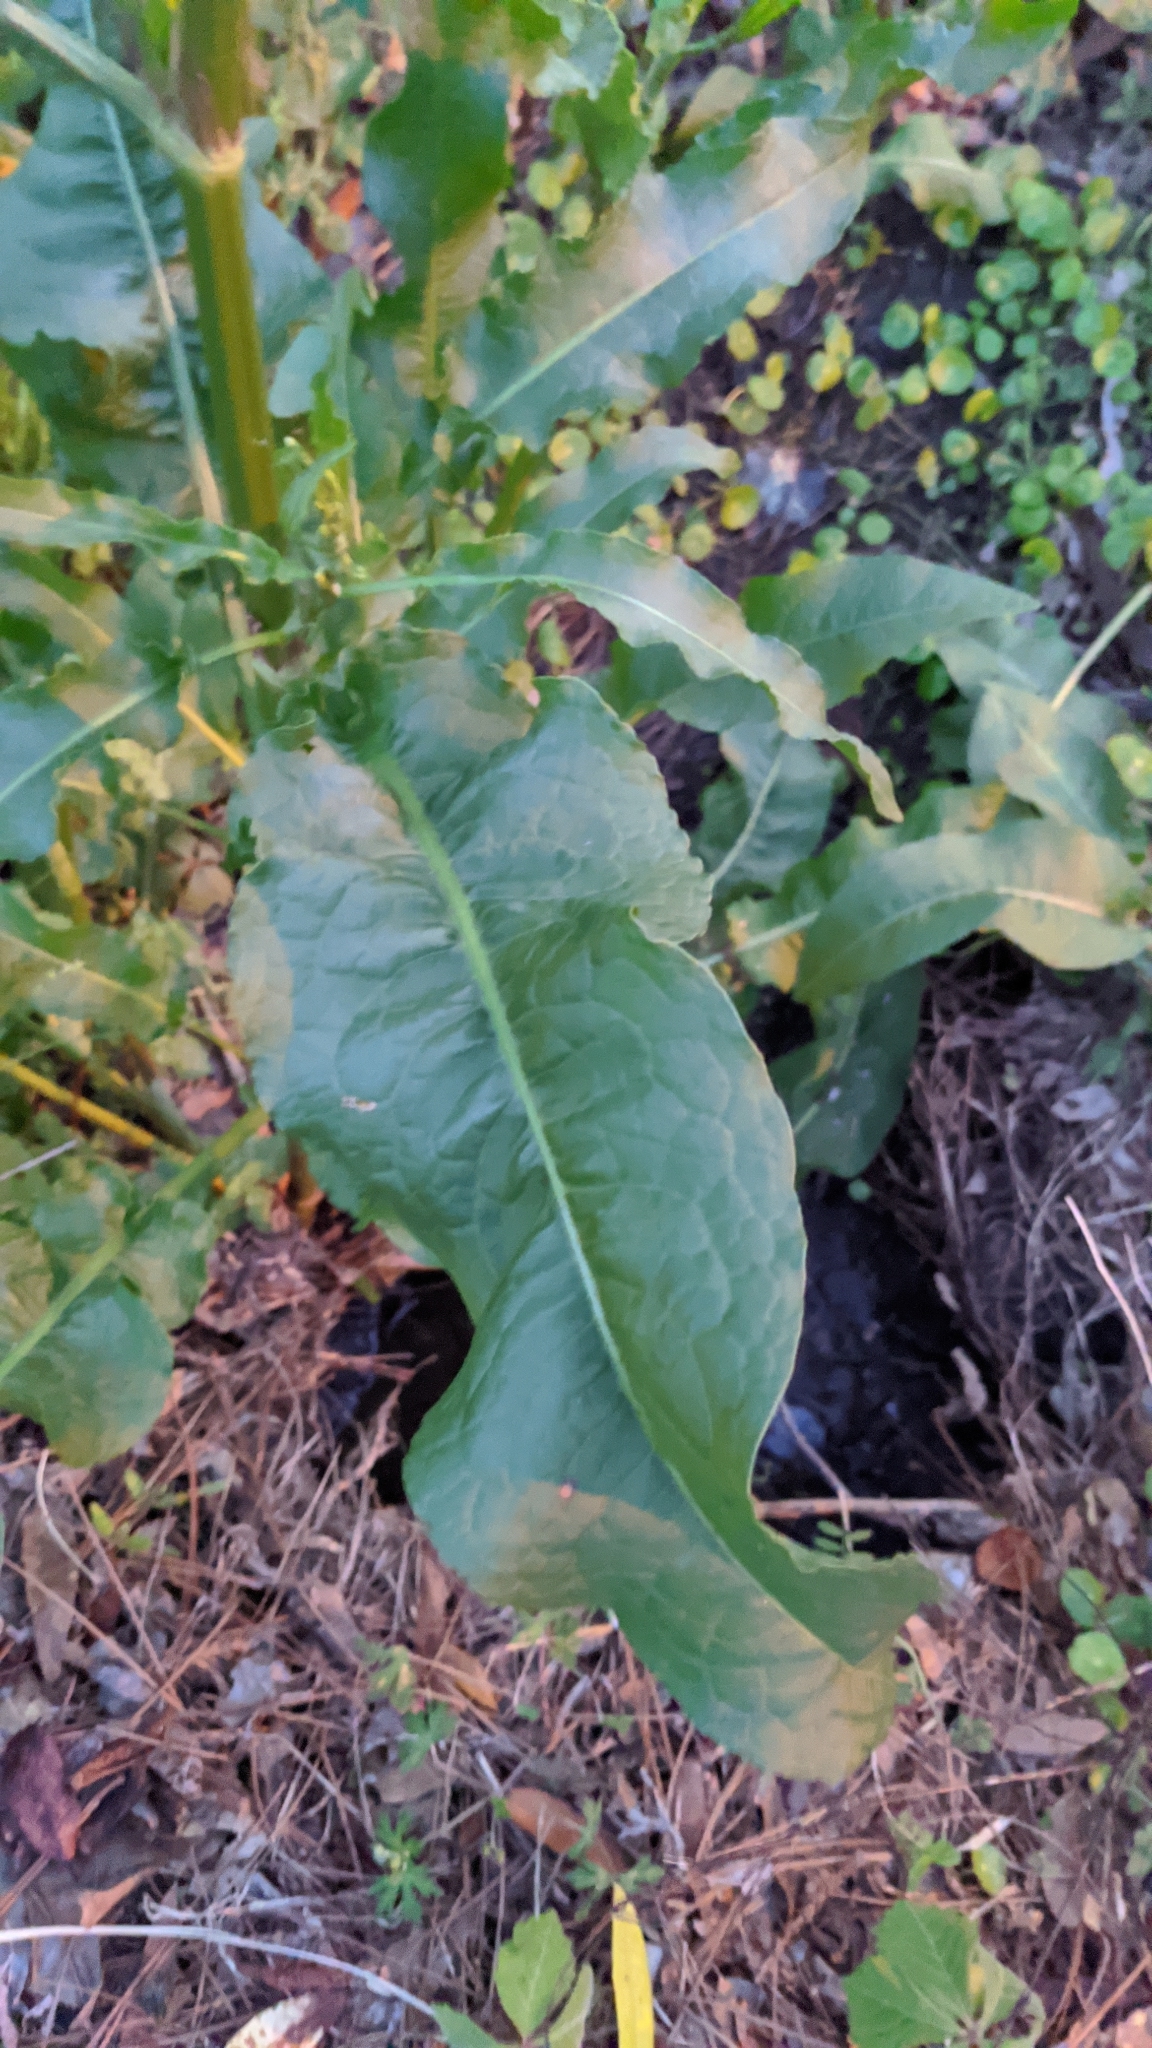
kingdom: Plantae
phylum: Tracheophyta
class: Magnoliopsida
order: Caryophyllales
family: Polygonaceae
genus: Rumex
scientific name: Rumex crispus
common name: Curled dock
